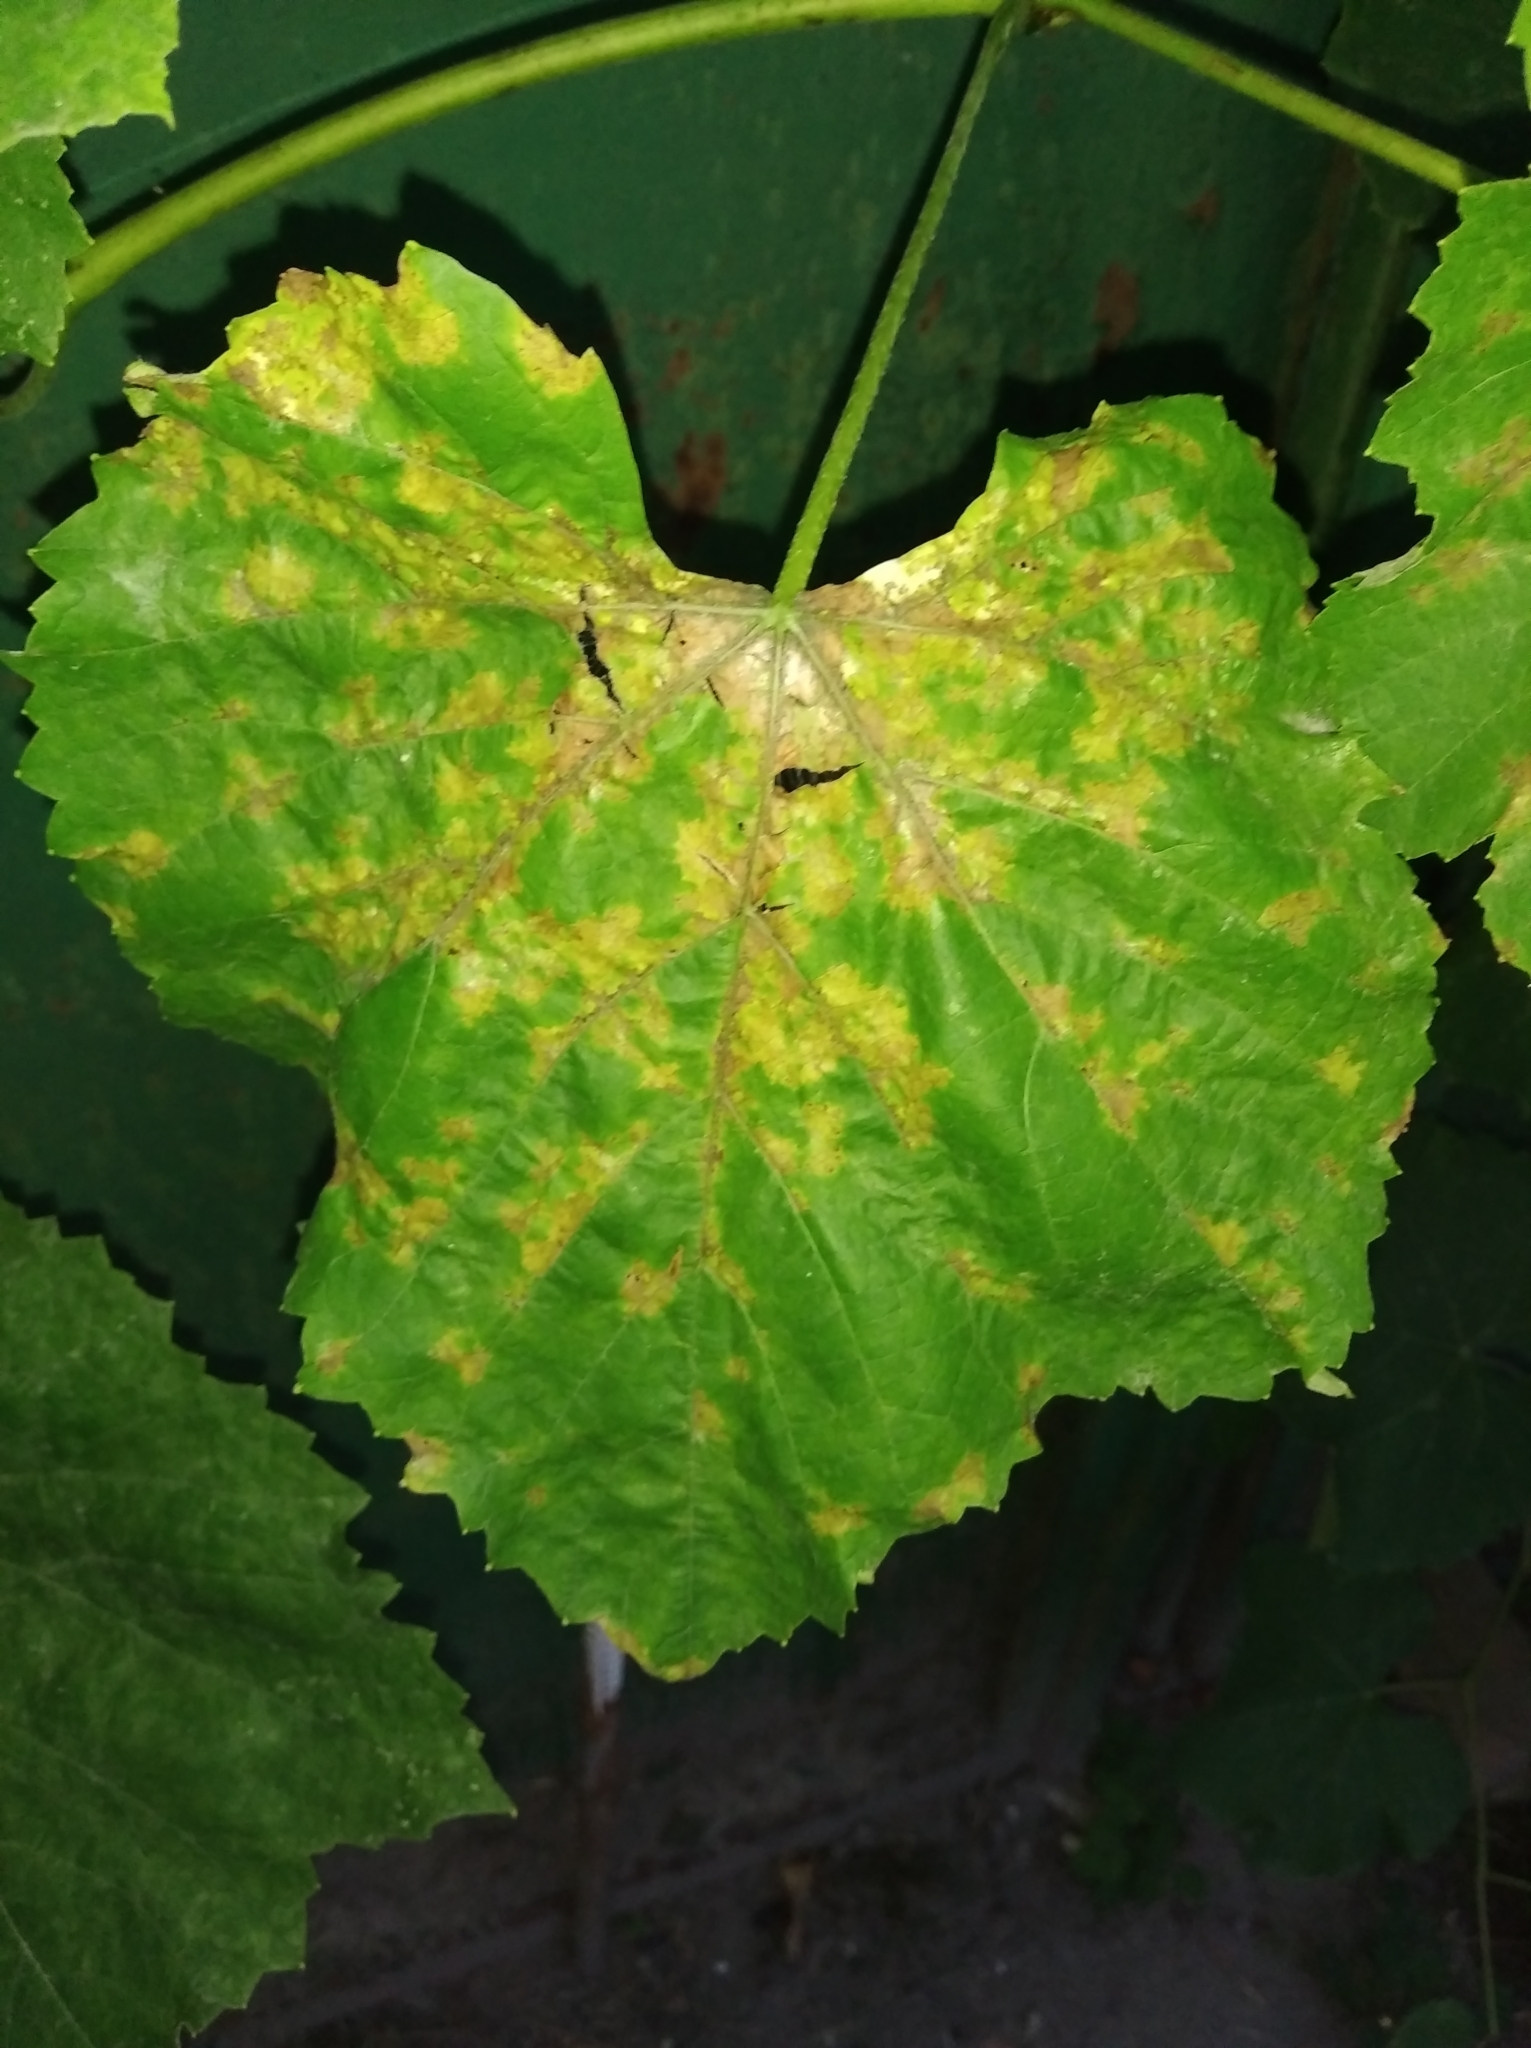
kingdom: Chromista
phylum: Oomycota
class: Peronosporea
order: Peronosporales
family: Peronosporaceae
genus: Plasmopara
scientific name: Plasmopara viticola
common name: Grapevine downy mildew
